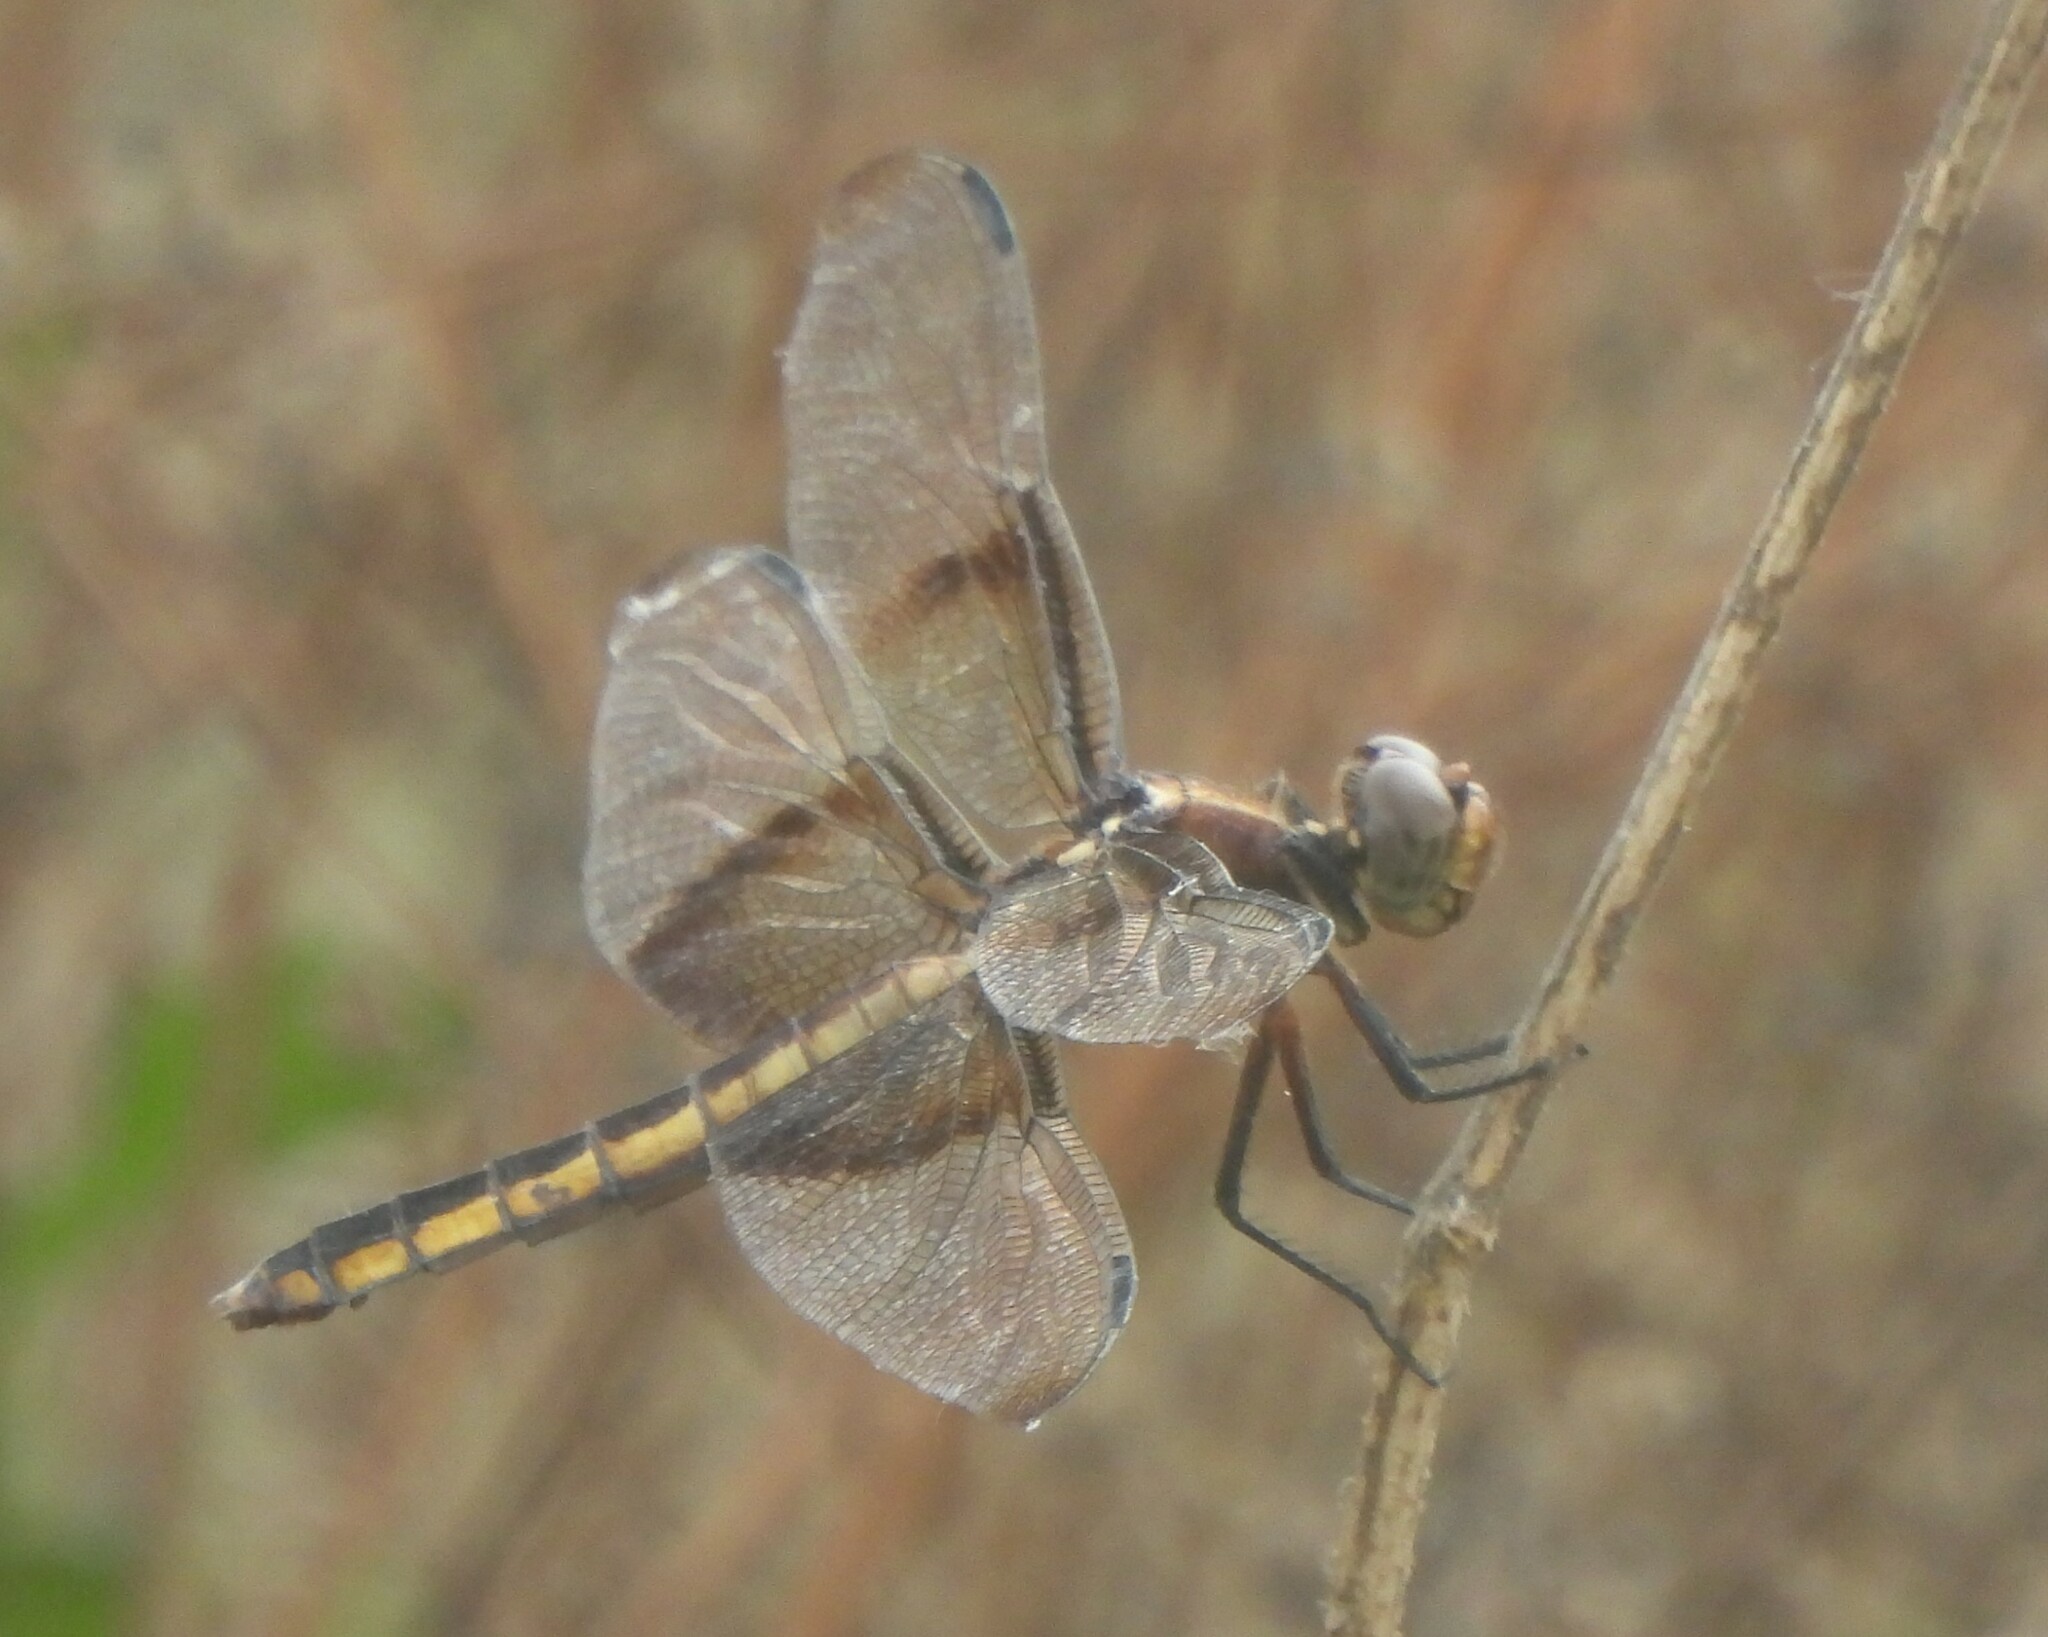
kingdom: Animalia
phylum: Arthropoda
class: Insecta
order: Odonata
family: Libellulidae
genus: Libellula
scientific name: Libellula luctuosa
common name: Widow skimmer
